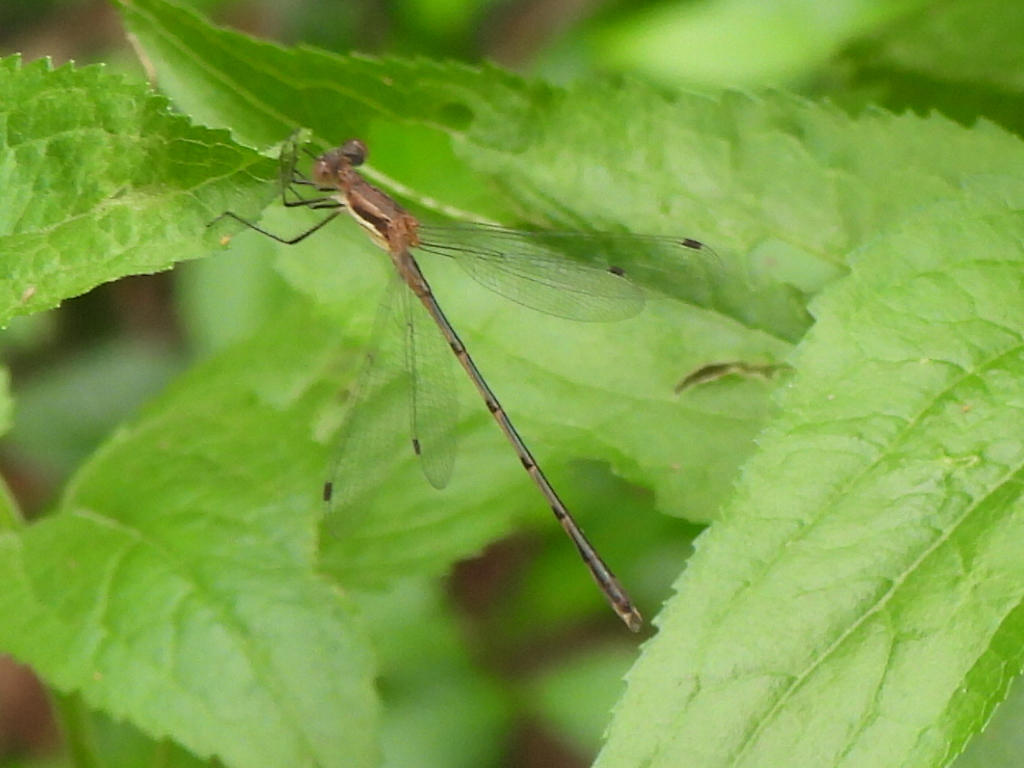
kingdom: Animalia
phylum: Arthropoda
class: Insecta
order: Odonata
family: Lestidae
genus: Lestes
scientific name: Lestes australis
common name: Southern spreadwing
